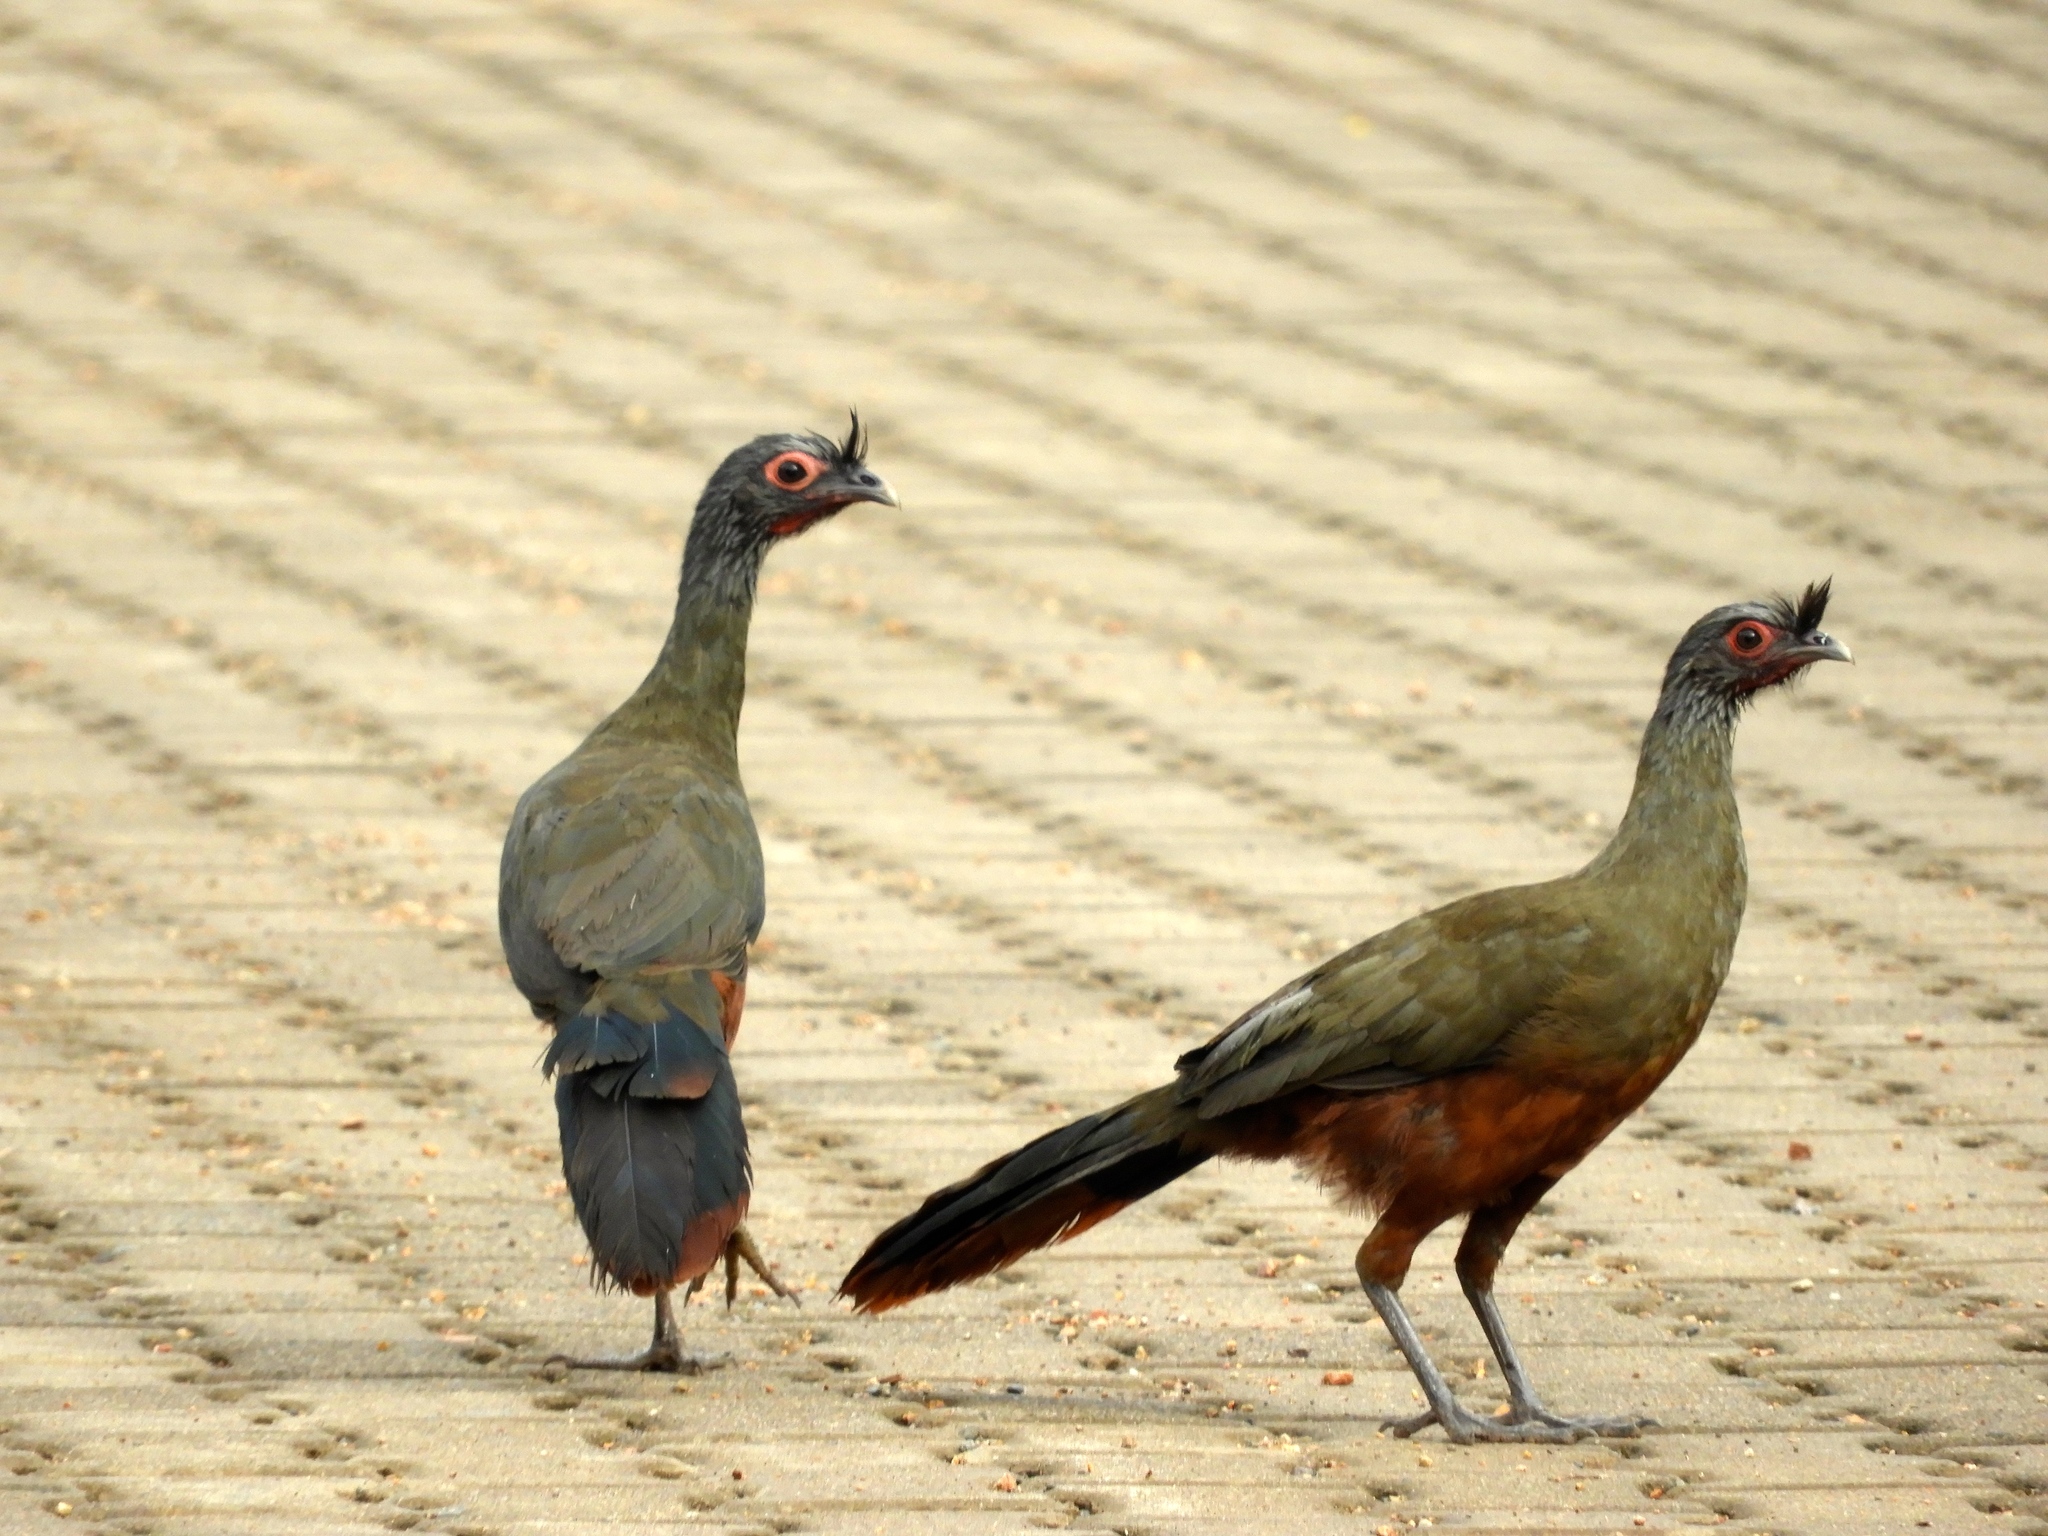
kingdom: Animalia
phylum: Chordata
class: Aves
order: Galliformes
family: Cracidae
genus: Ortalis
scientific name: Ortalis wagleri
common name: Rufous-bellied chachalaca
